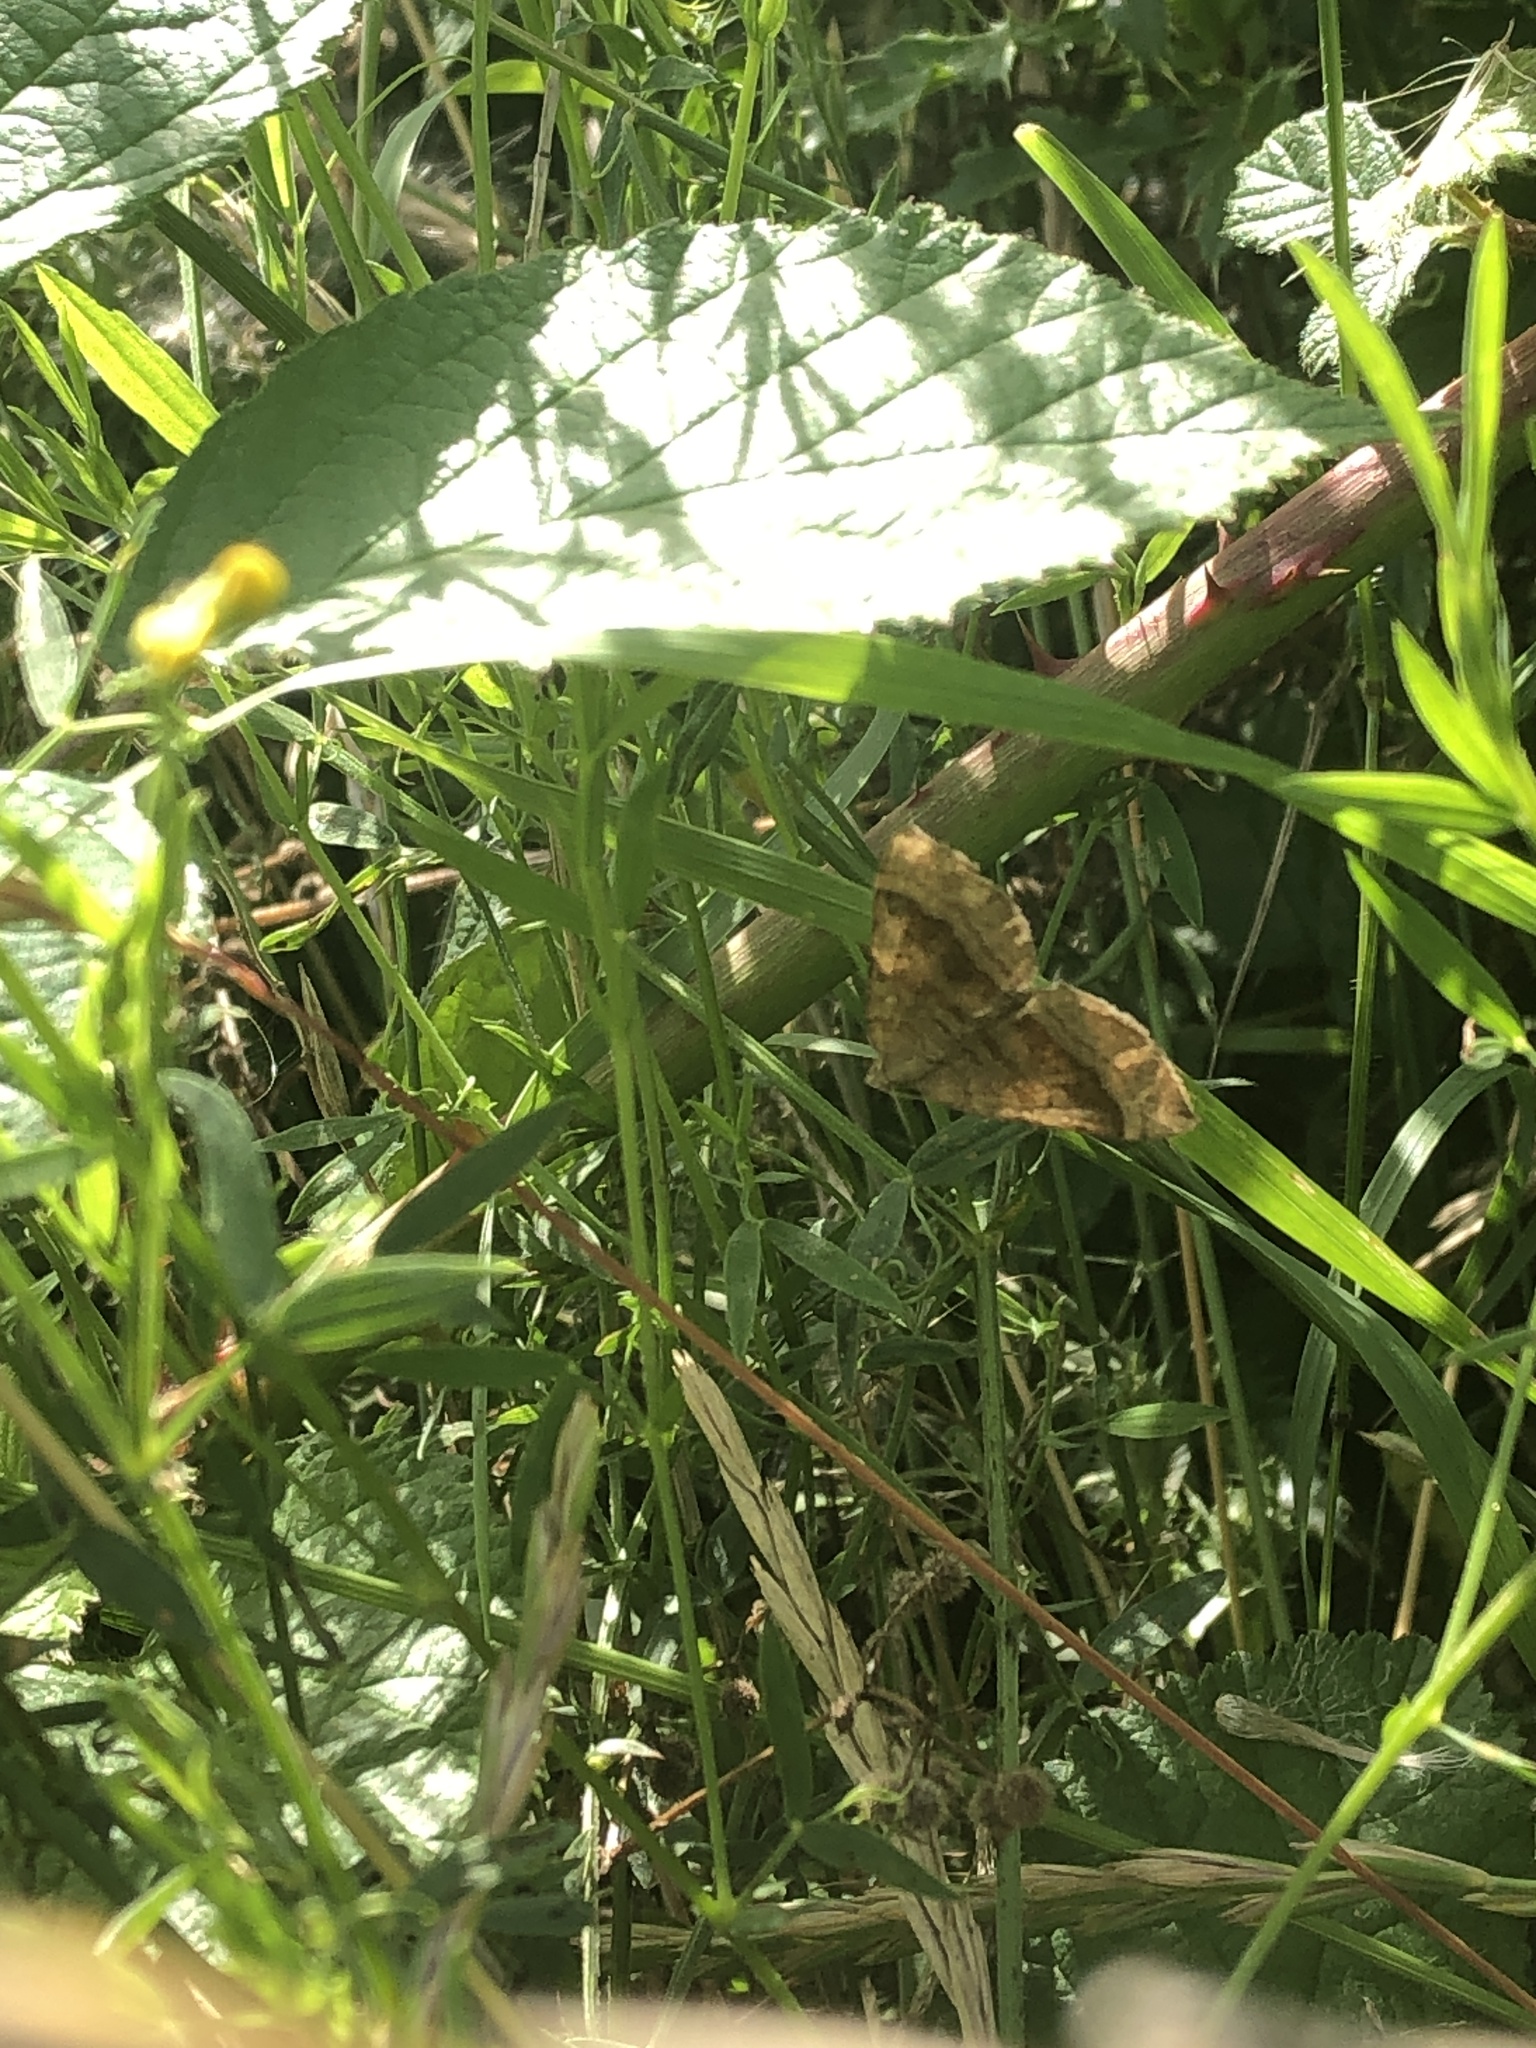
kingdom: Animalia
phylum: Arthropoda
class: Insecta
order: Lepidoptera
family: Geometridae
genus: Scotopteryx
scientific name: Scotopteryx chenopodiata
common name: Shaded broad-bar
